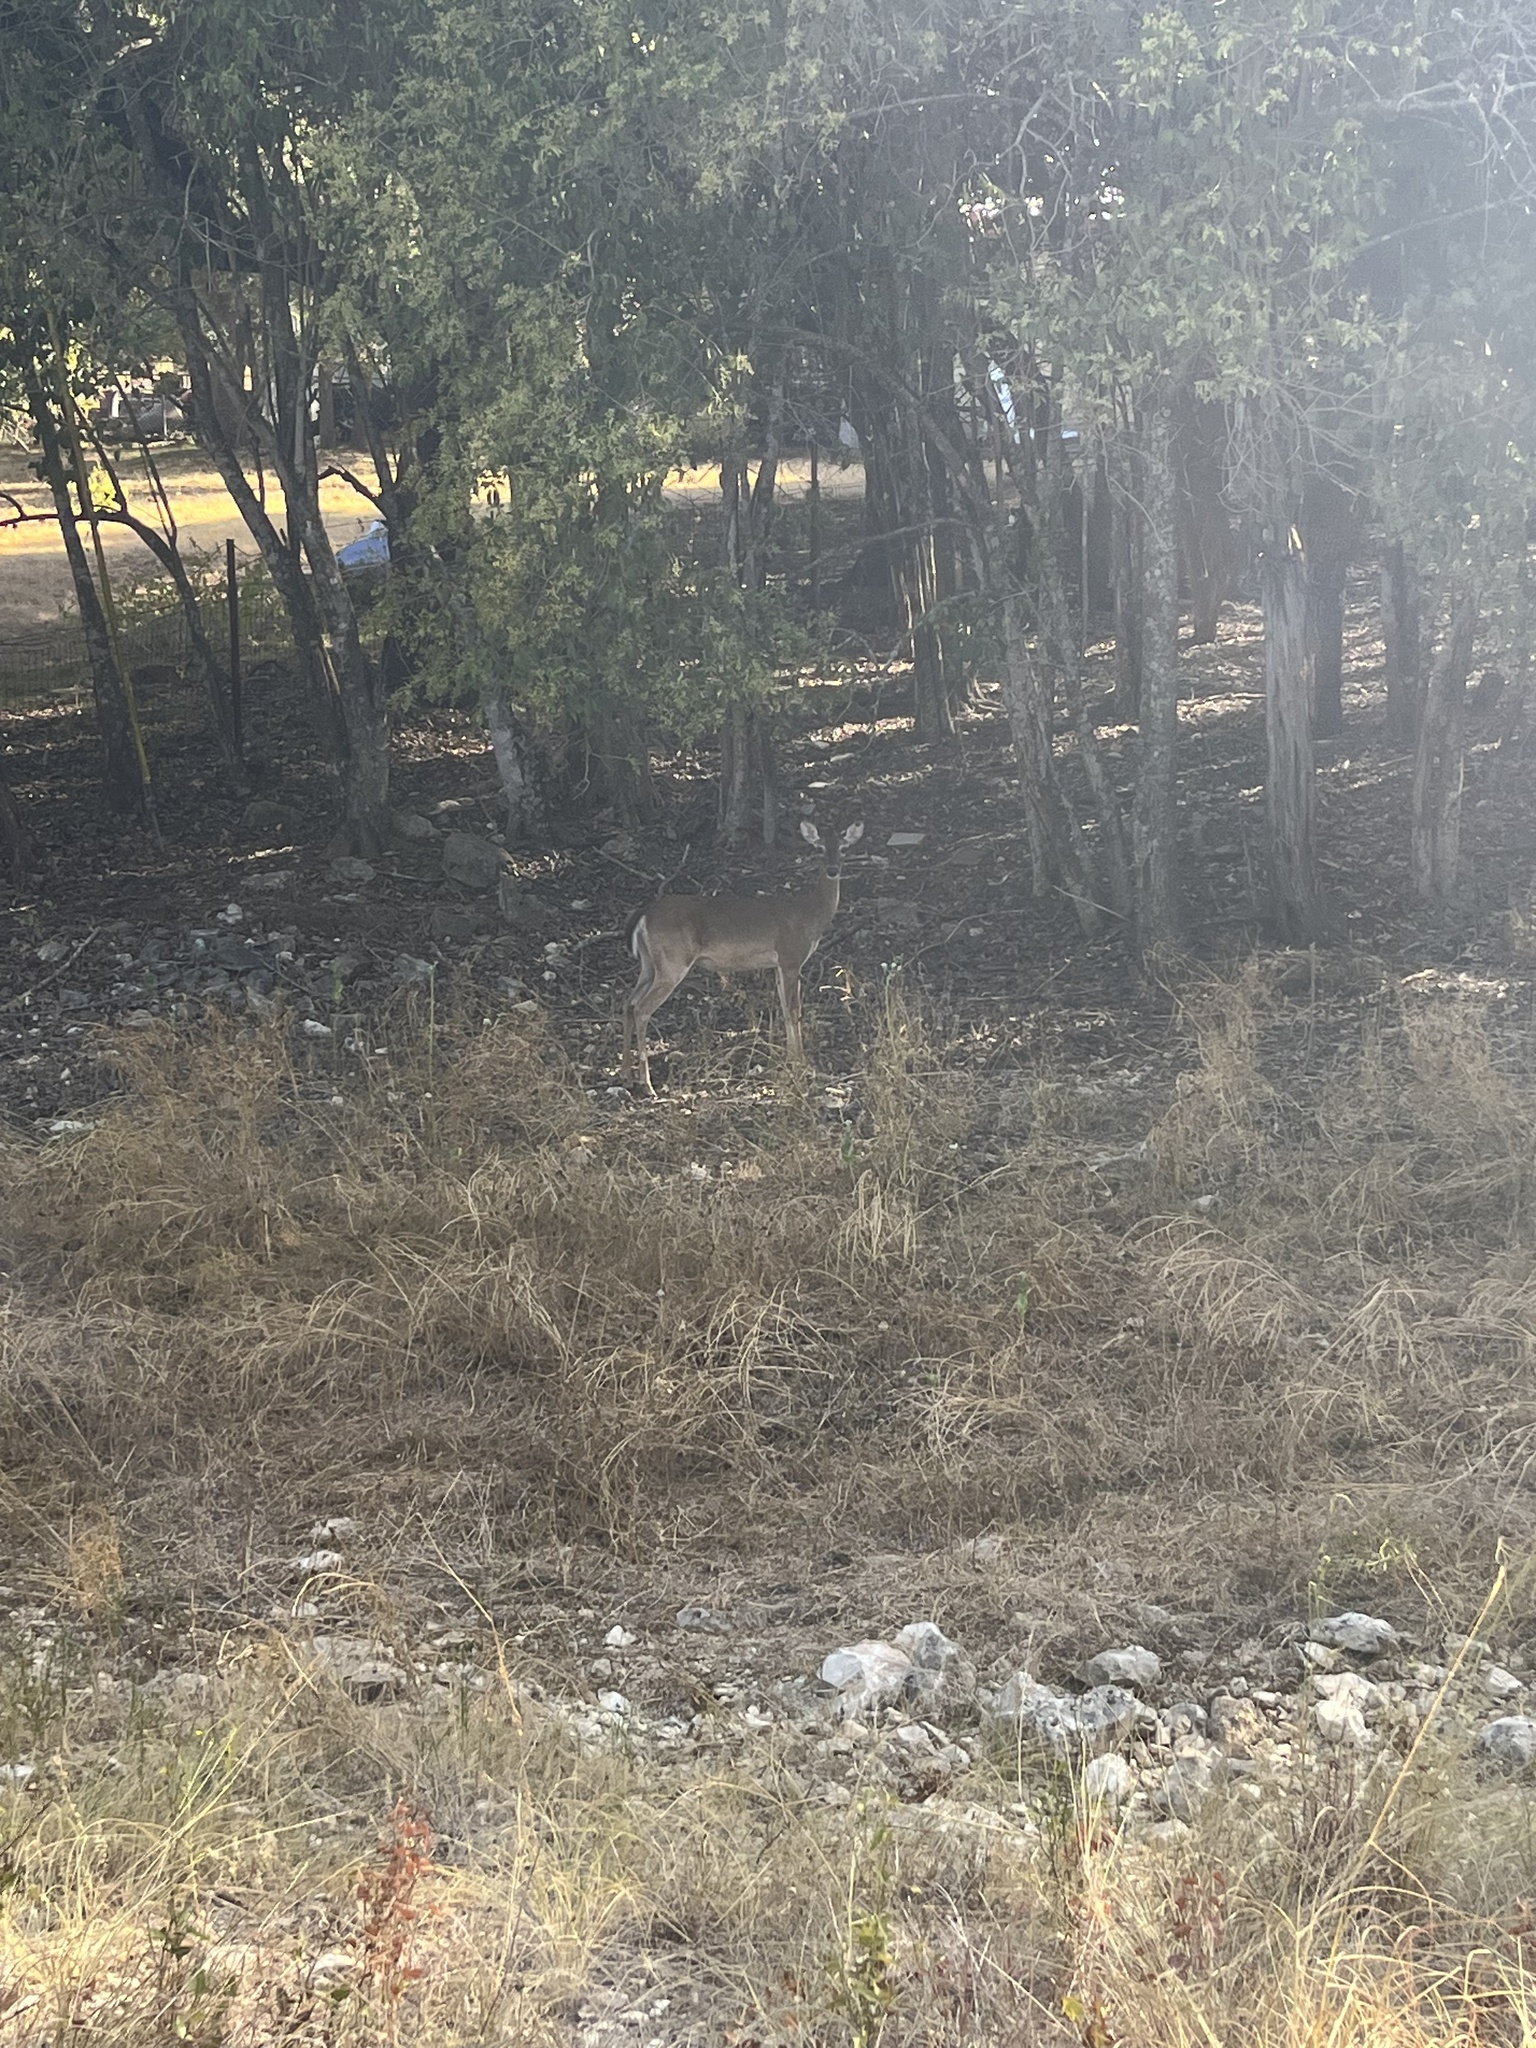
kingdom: Animalia
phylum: Chordata
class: Mammalia
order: Artiodactyla
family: Cervidae
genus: Odocoileus
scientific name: Odocoileus virginianus
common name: White-tailed deer
